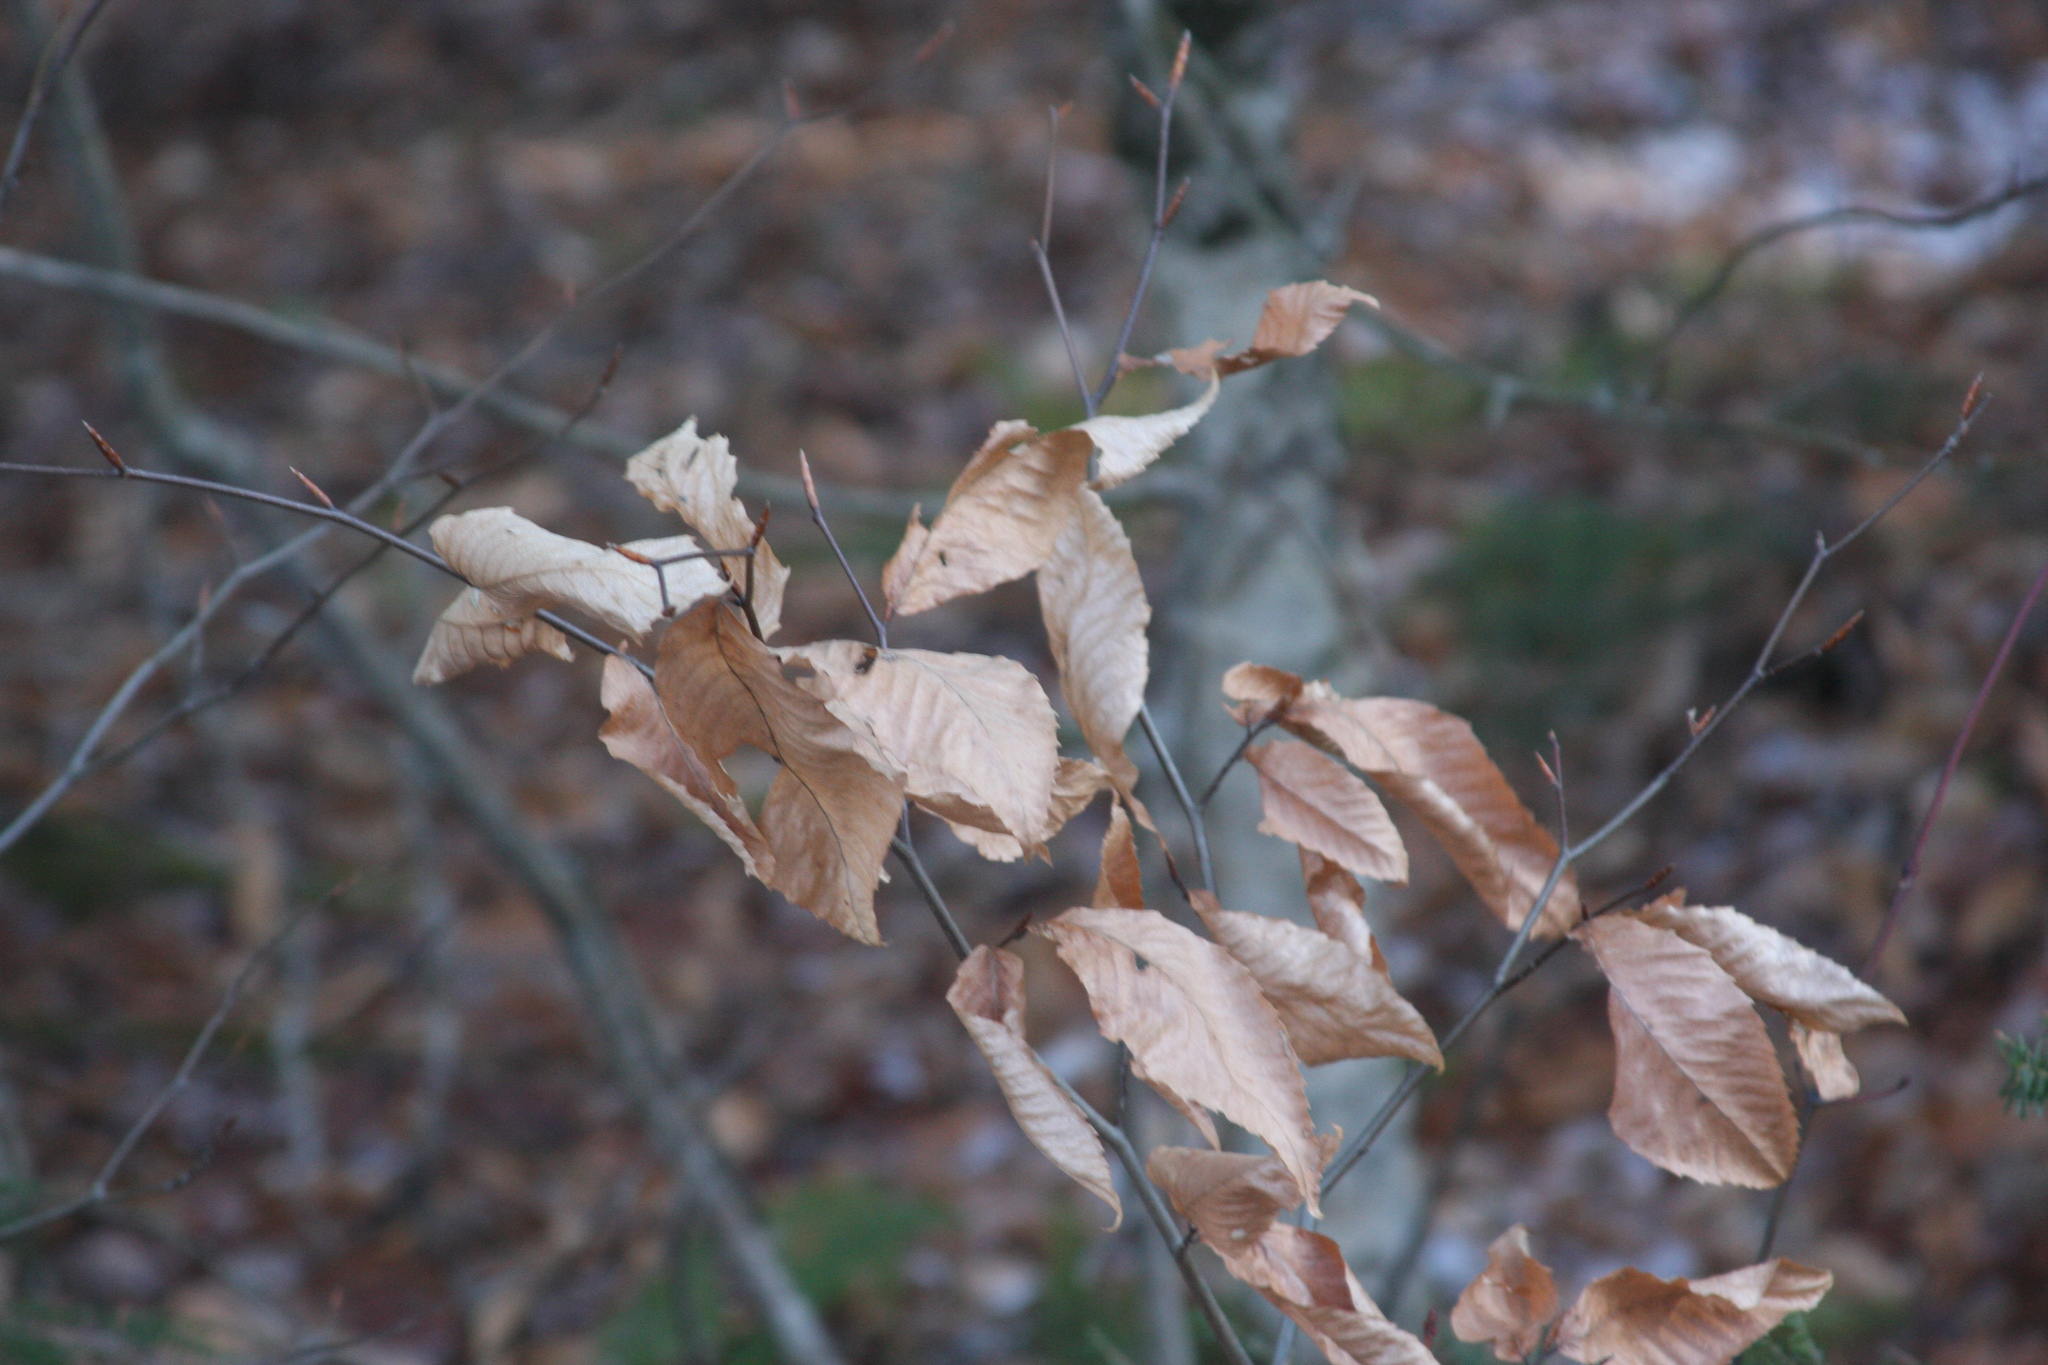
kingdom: Plantae
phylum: Tracheophyta
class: Magnoliopsida
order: Fagales
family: Fagaceae
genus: Fagus
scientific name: Fagus grandifolia
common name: American beech
